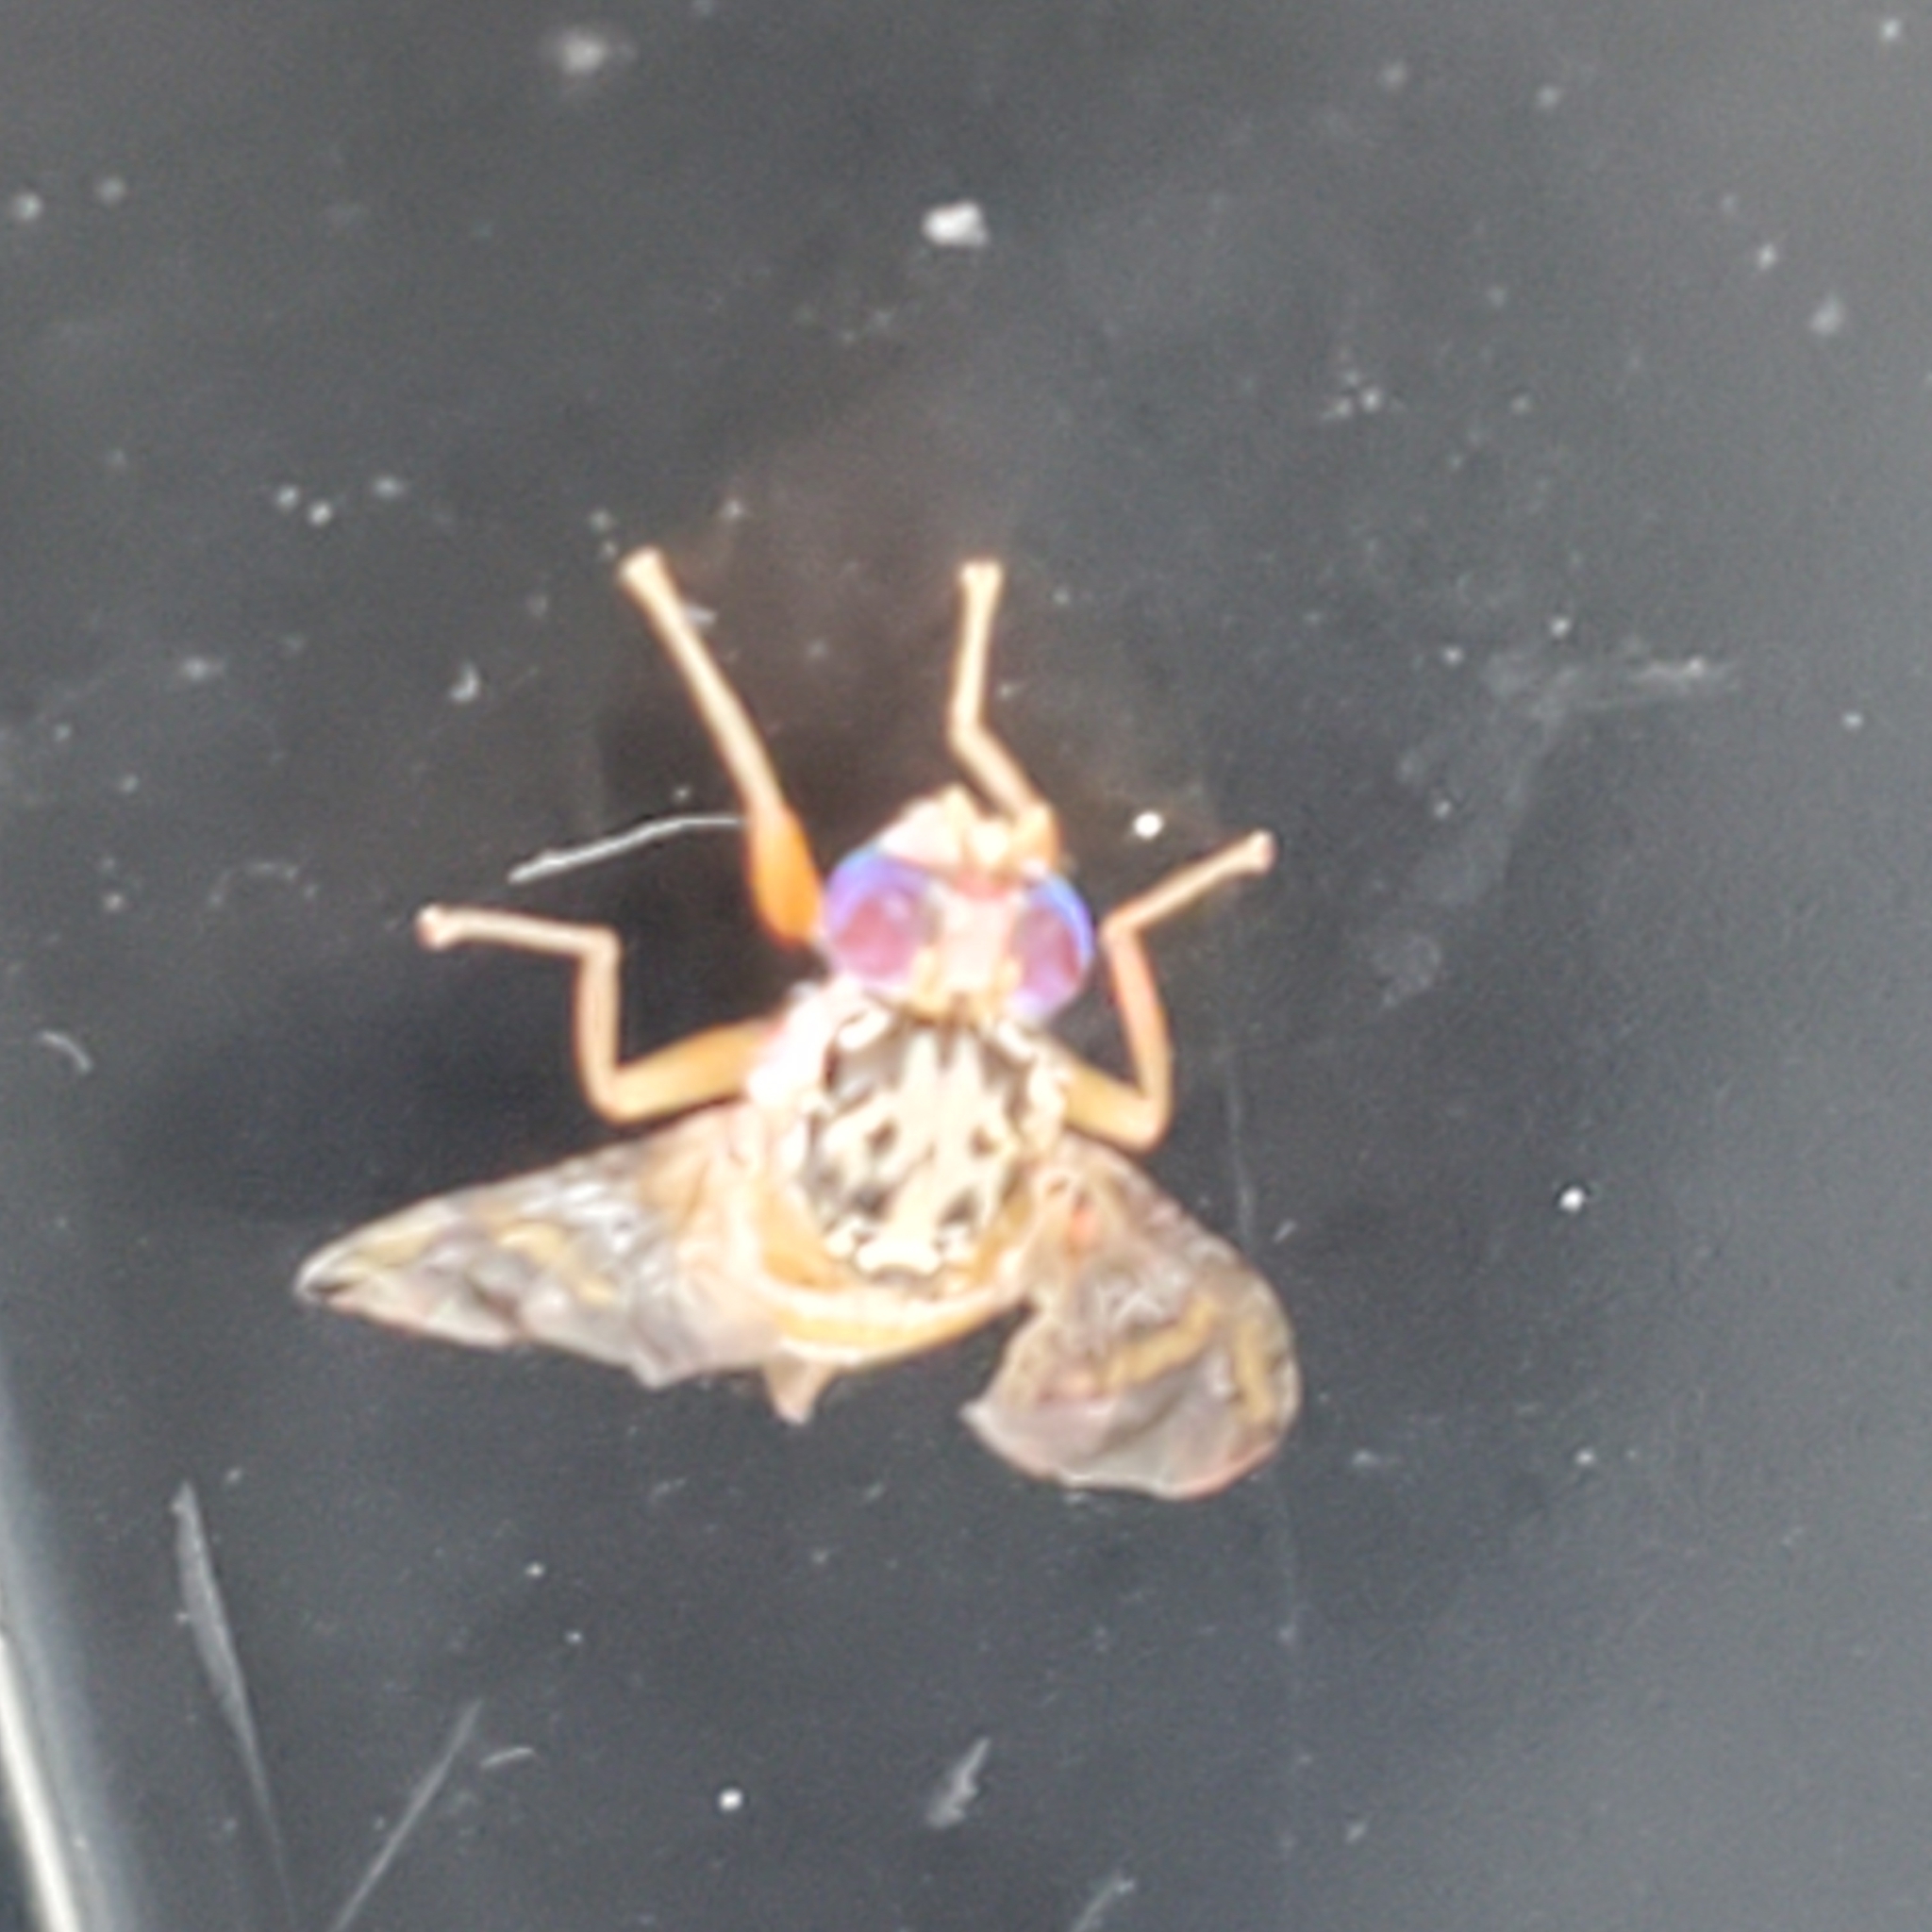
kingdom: Animalia
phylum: Arthropoda
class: Insecta
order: Diptera
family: Tephritidae
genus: Ceratitis
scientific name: Ceratitis capitata
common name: Mediterranean fruit fly
